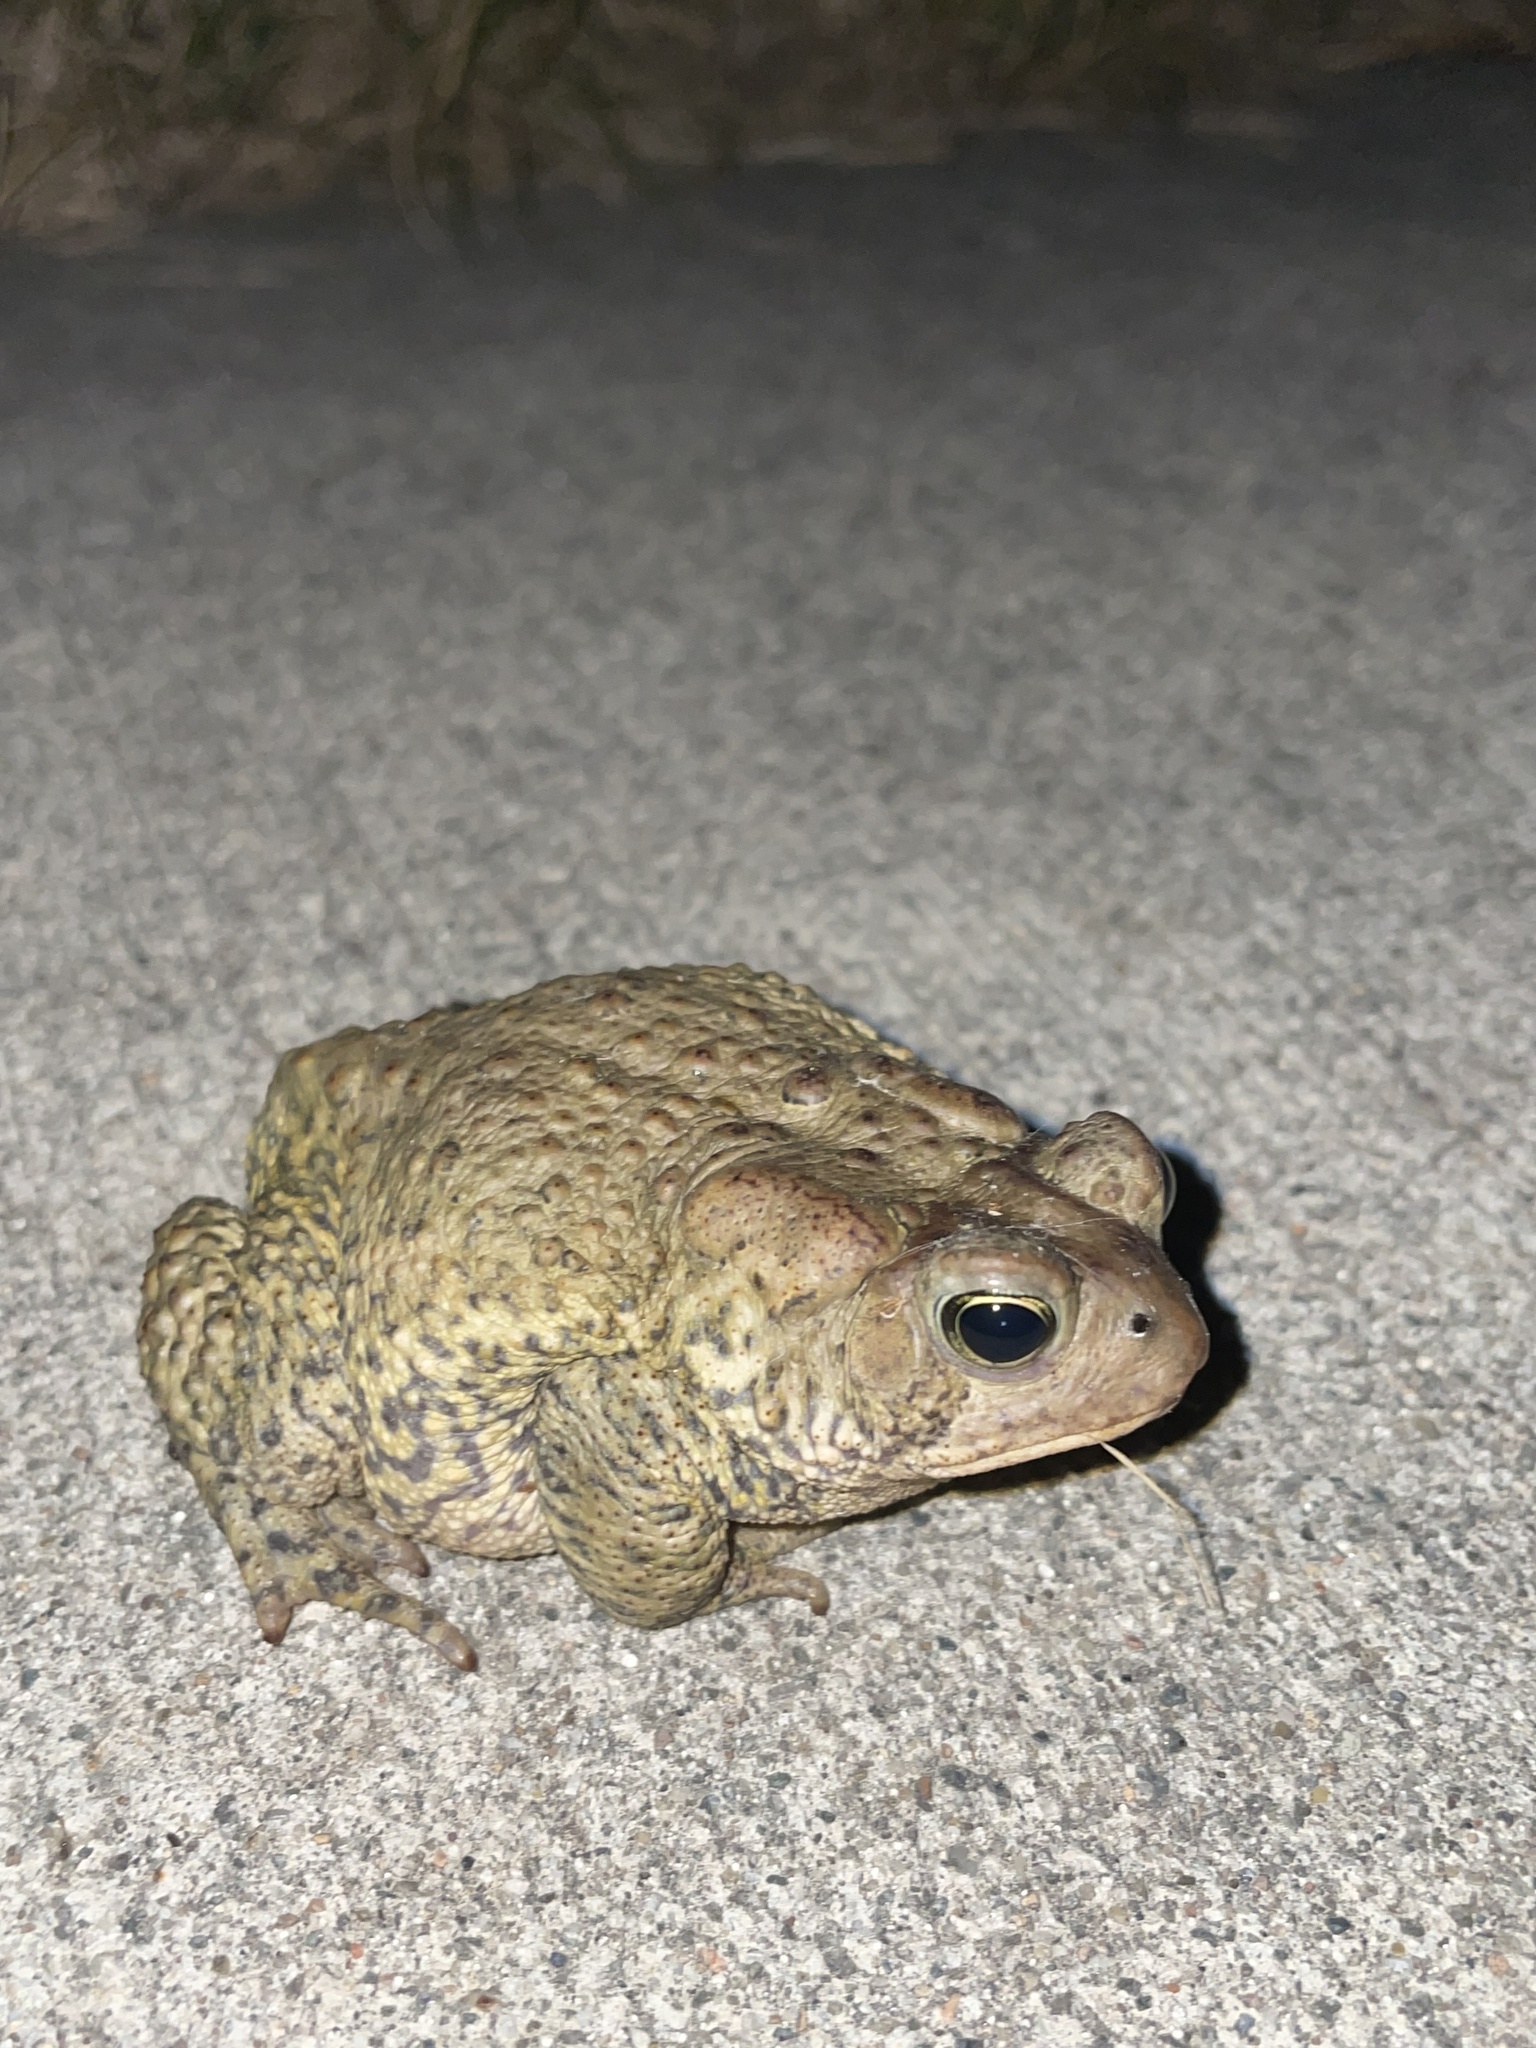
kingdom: Animalia
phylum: Chordata
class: Amphibia
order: Anura
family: Bufonidae
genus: Anaxyrus
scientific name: Anaxyrus americanus
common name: American toad
